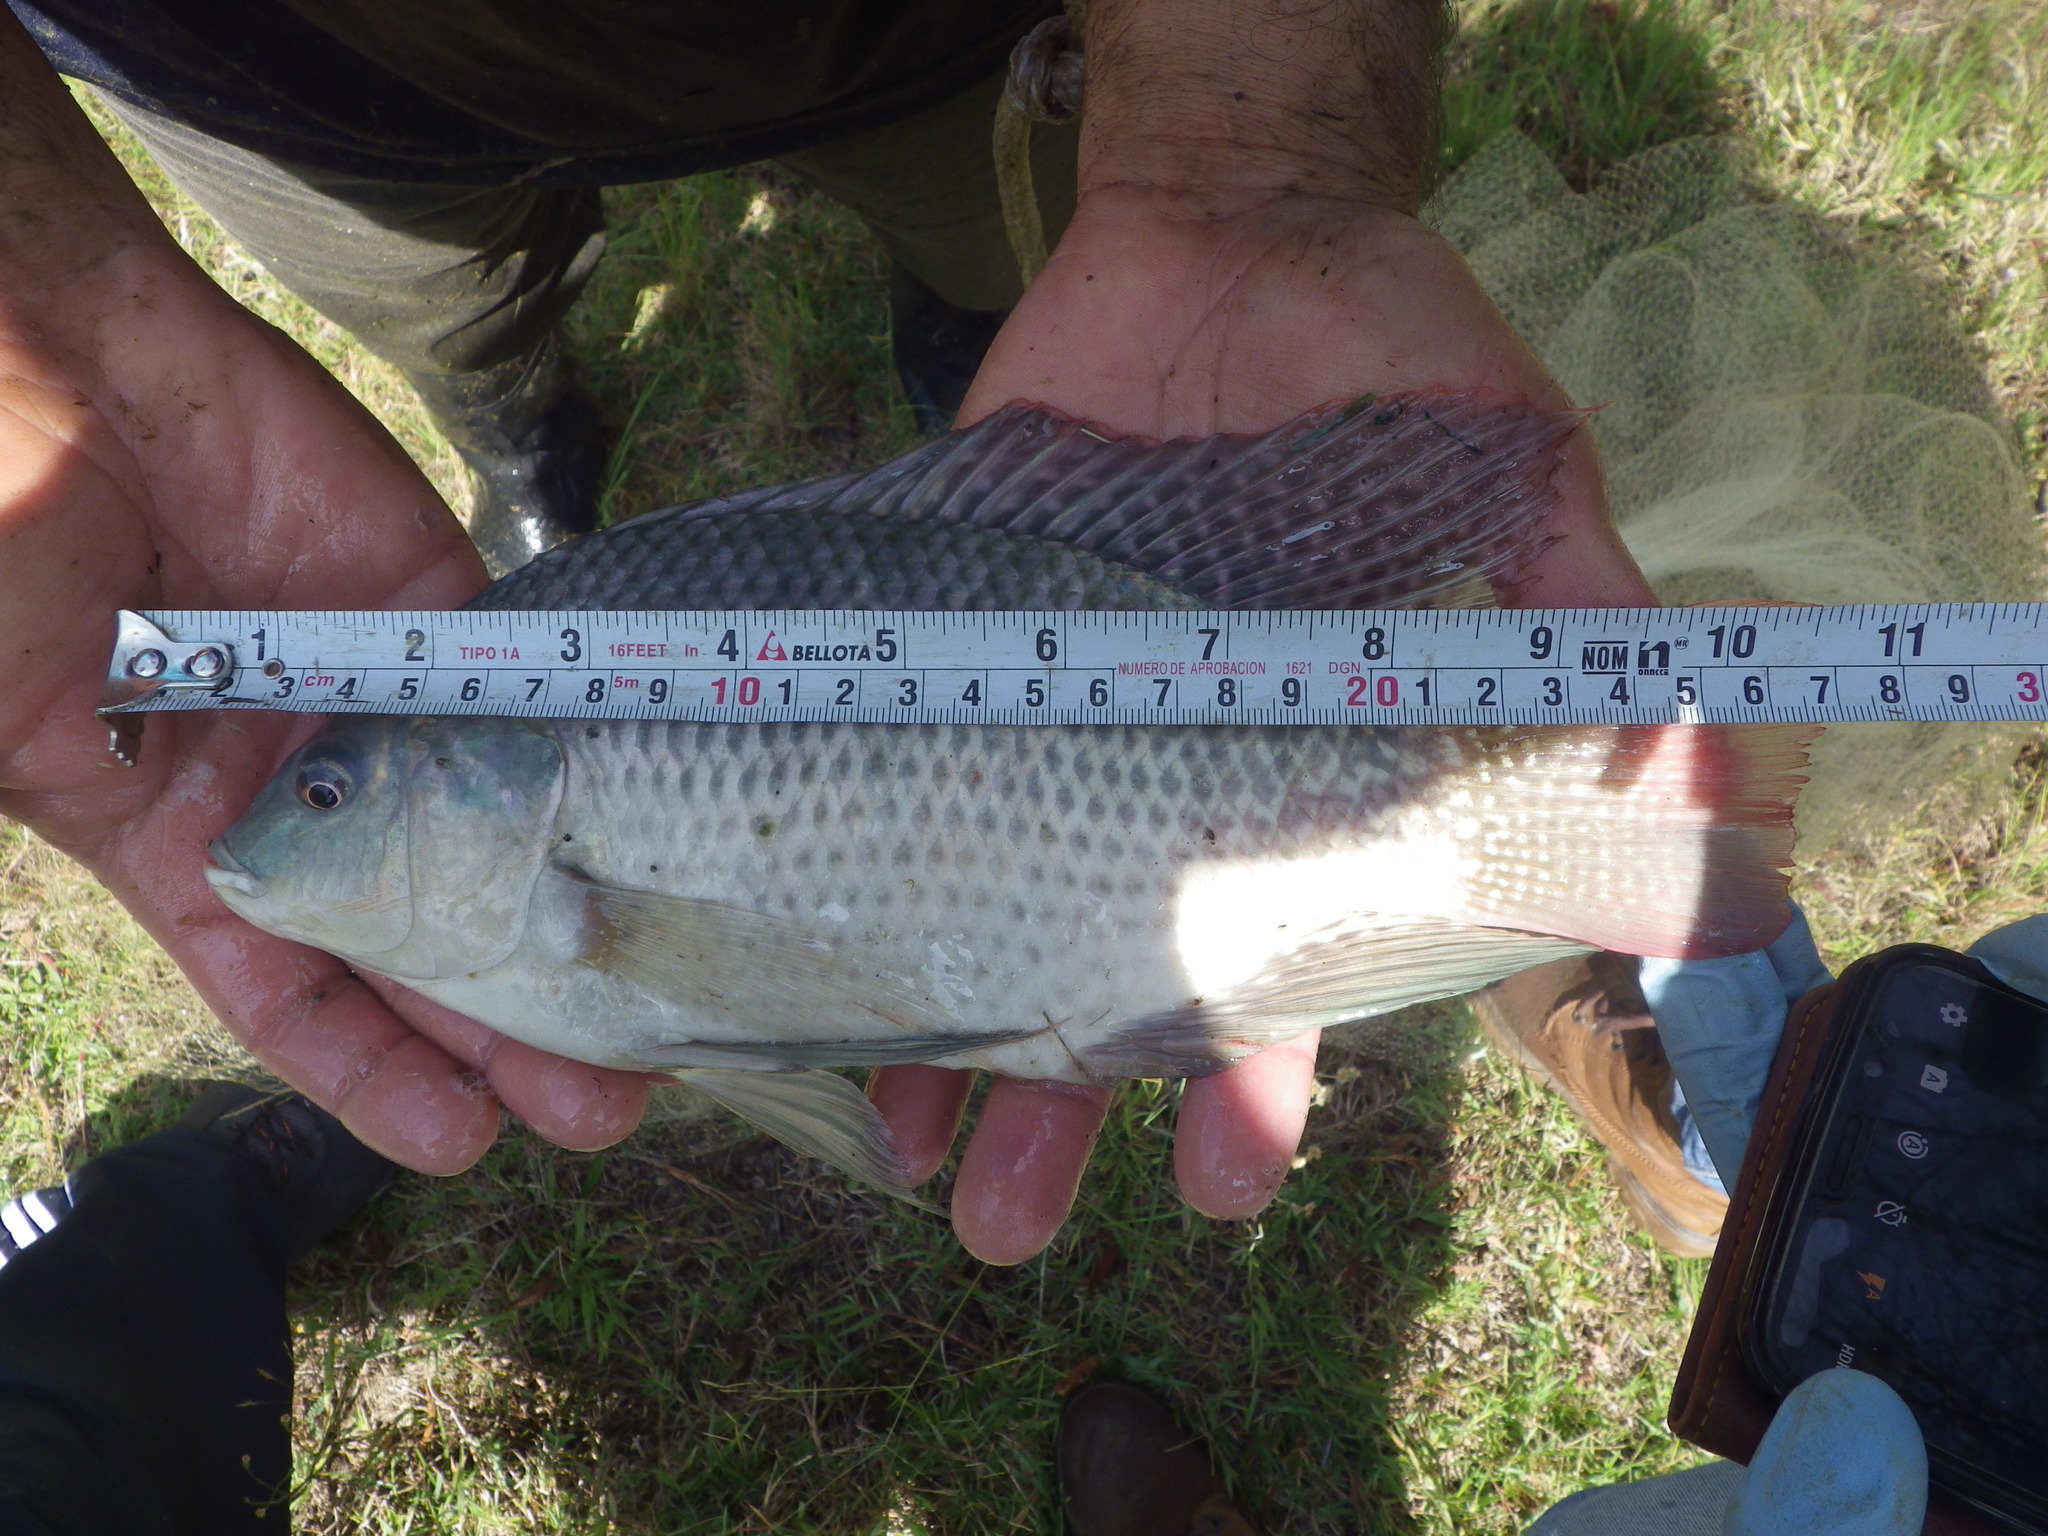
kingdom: Animalia
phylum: Chordata
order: Perciformes
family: Cichlidae
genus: Oreochromis
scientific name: Oreochromis niloticus
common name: Nile tilapia
